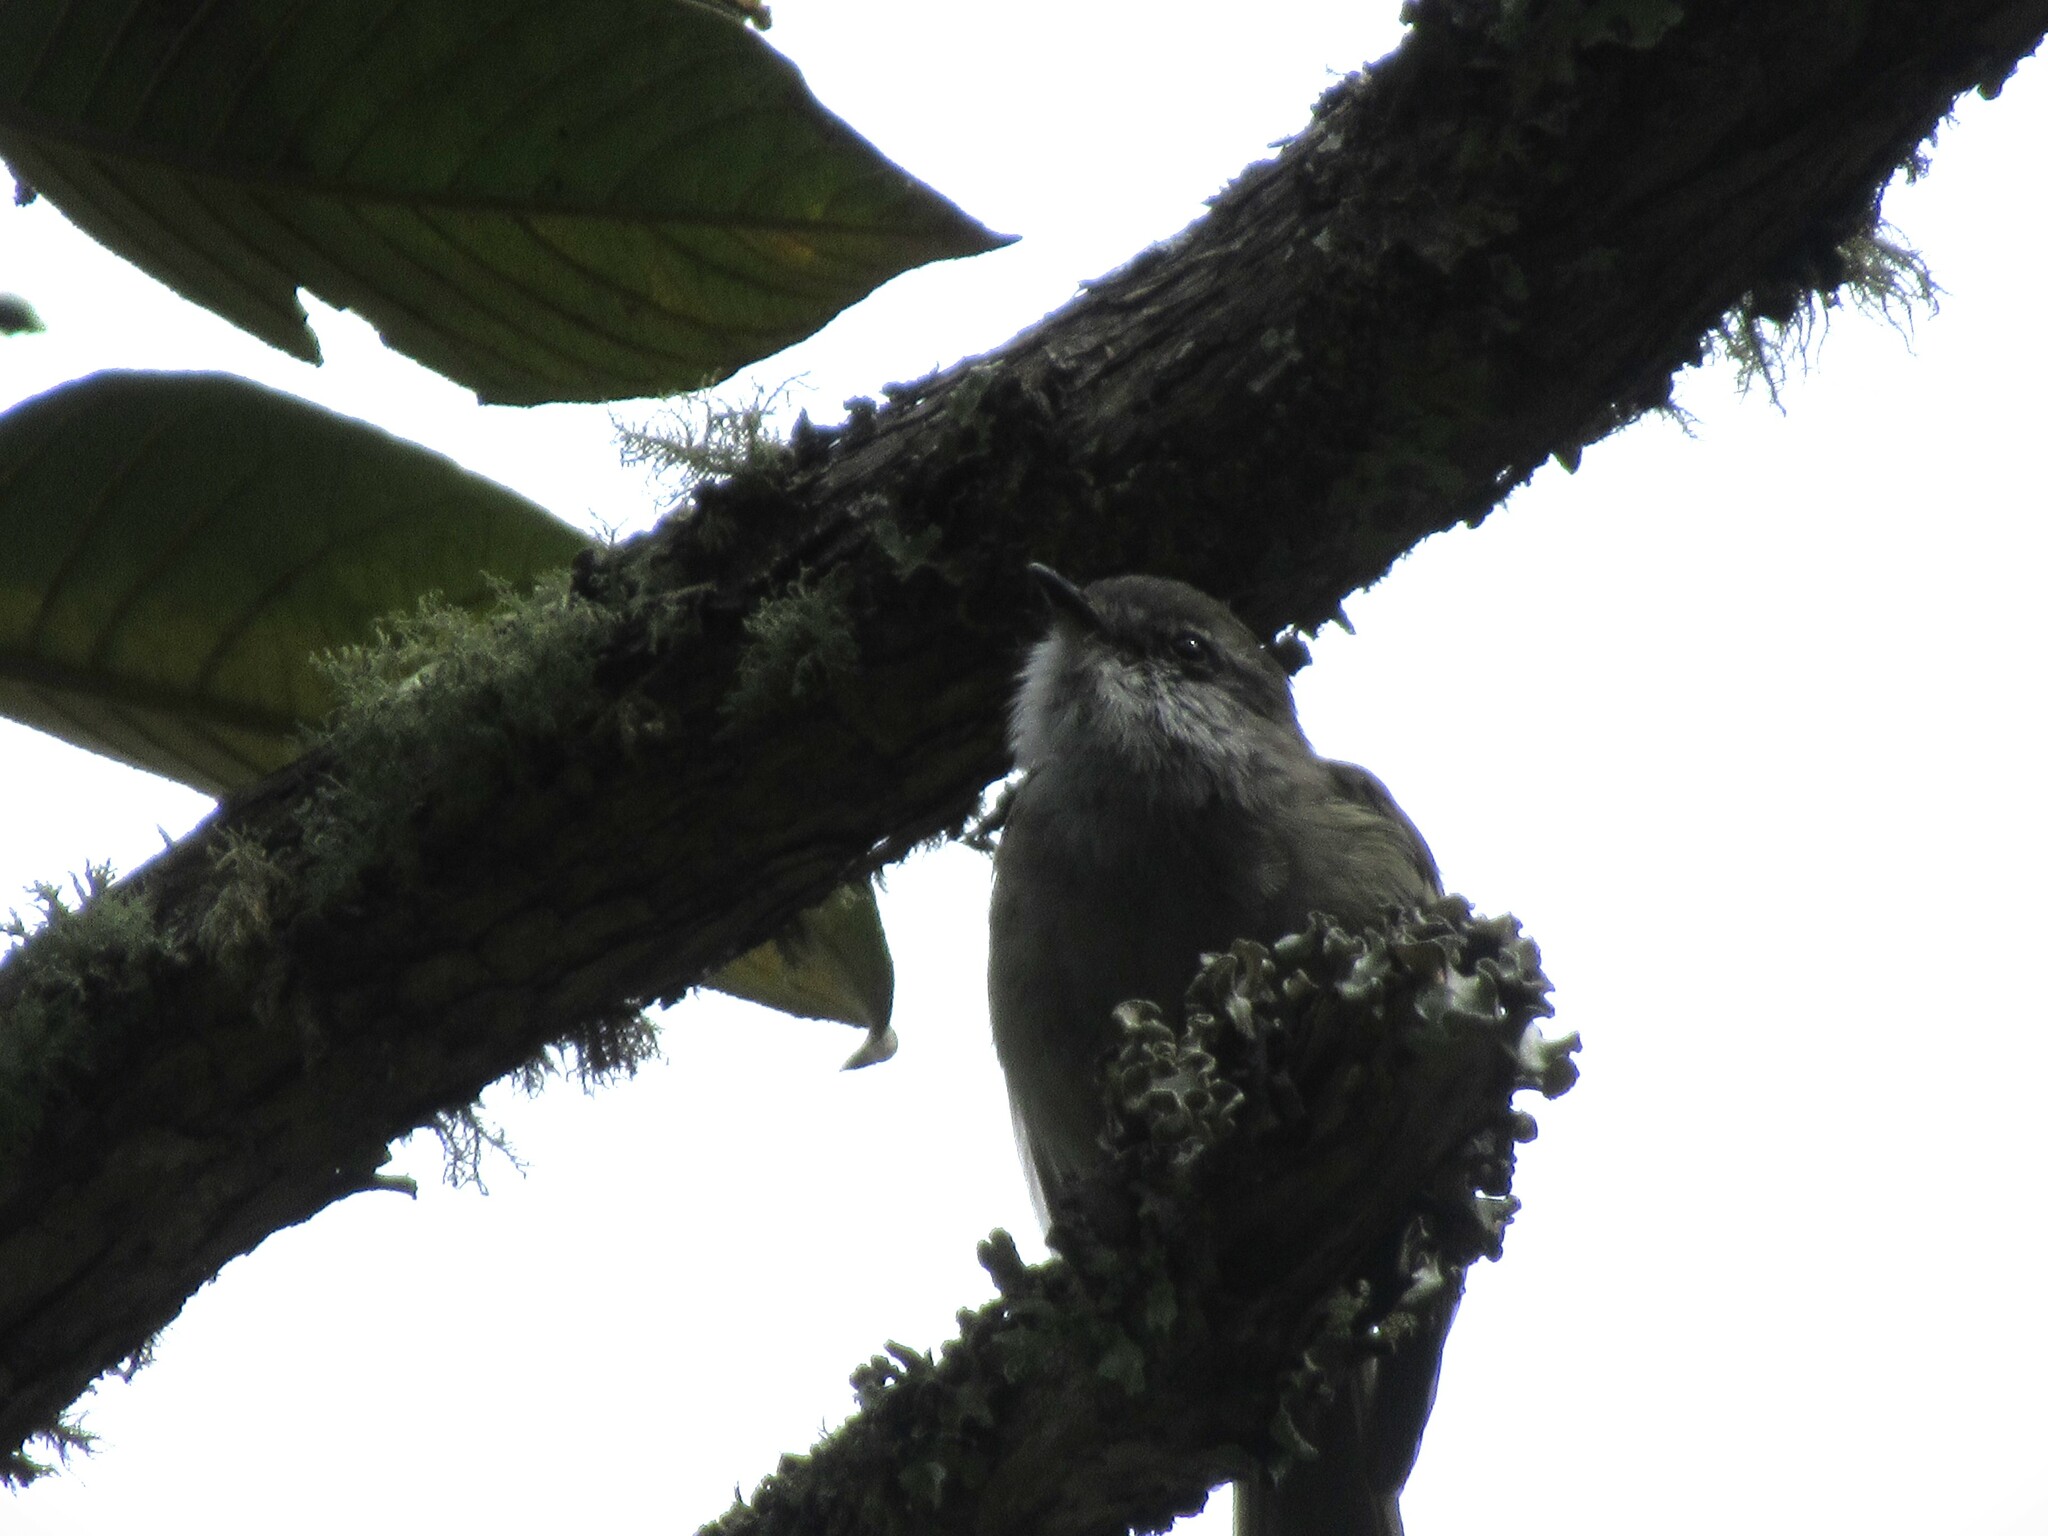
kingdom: Animalia
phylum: Chordata
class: Aves
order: Passeriformes
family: Tyrannidae
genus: Mecocerculus
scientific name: Mecocerculus leucophrys
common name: White-throated tyrannulet
